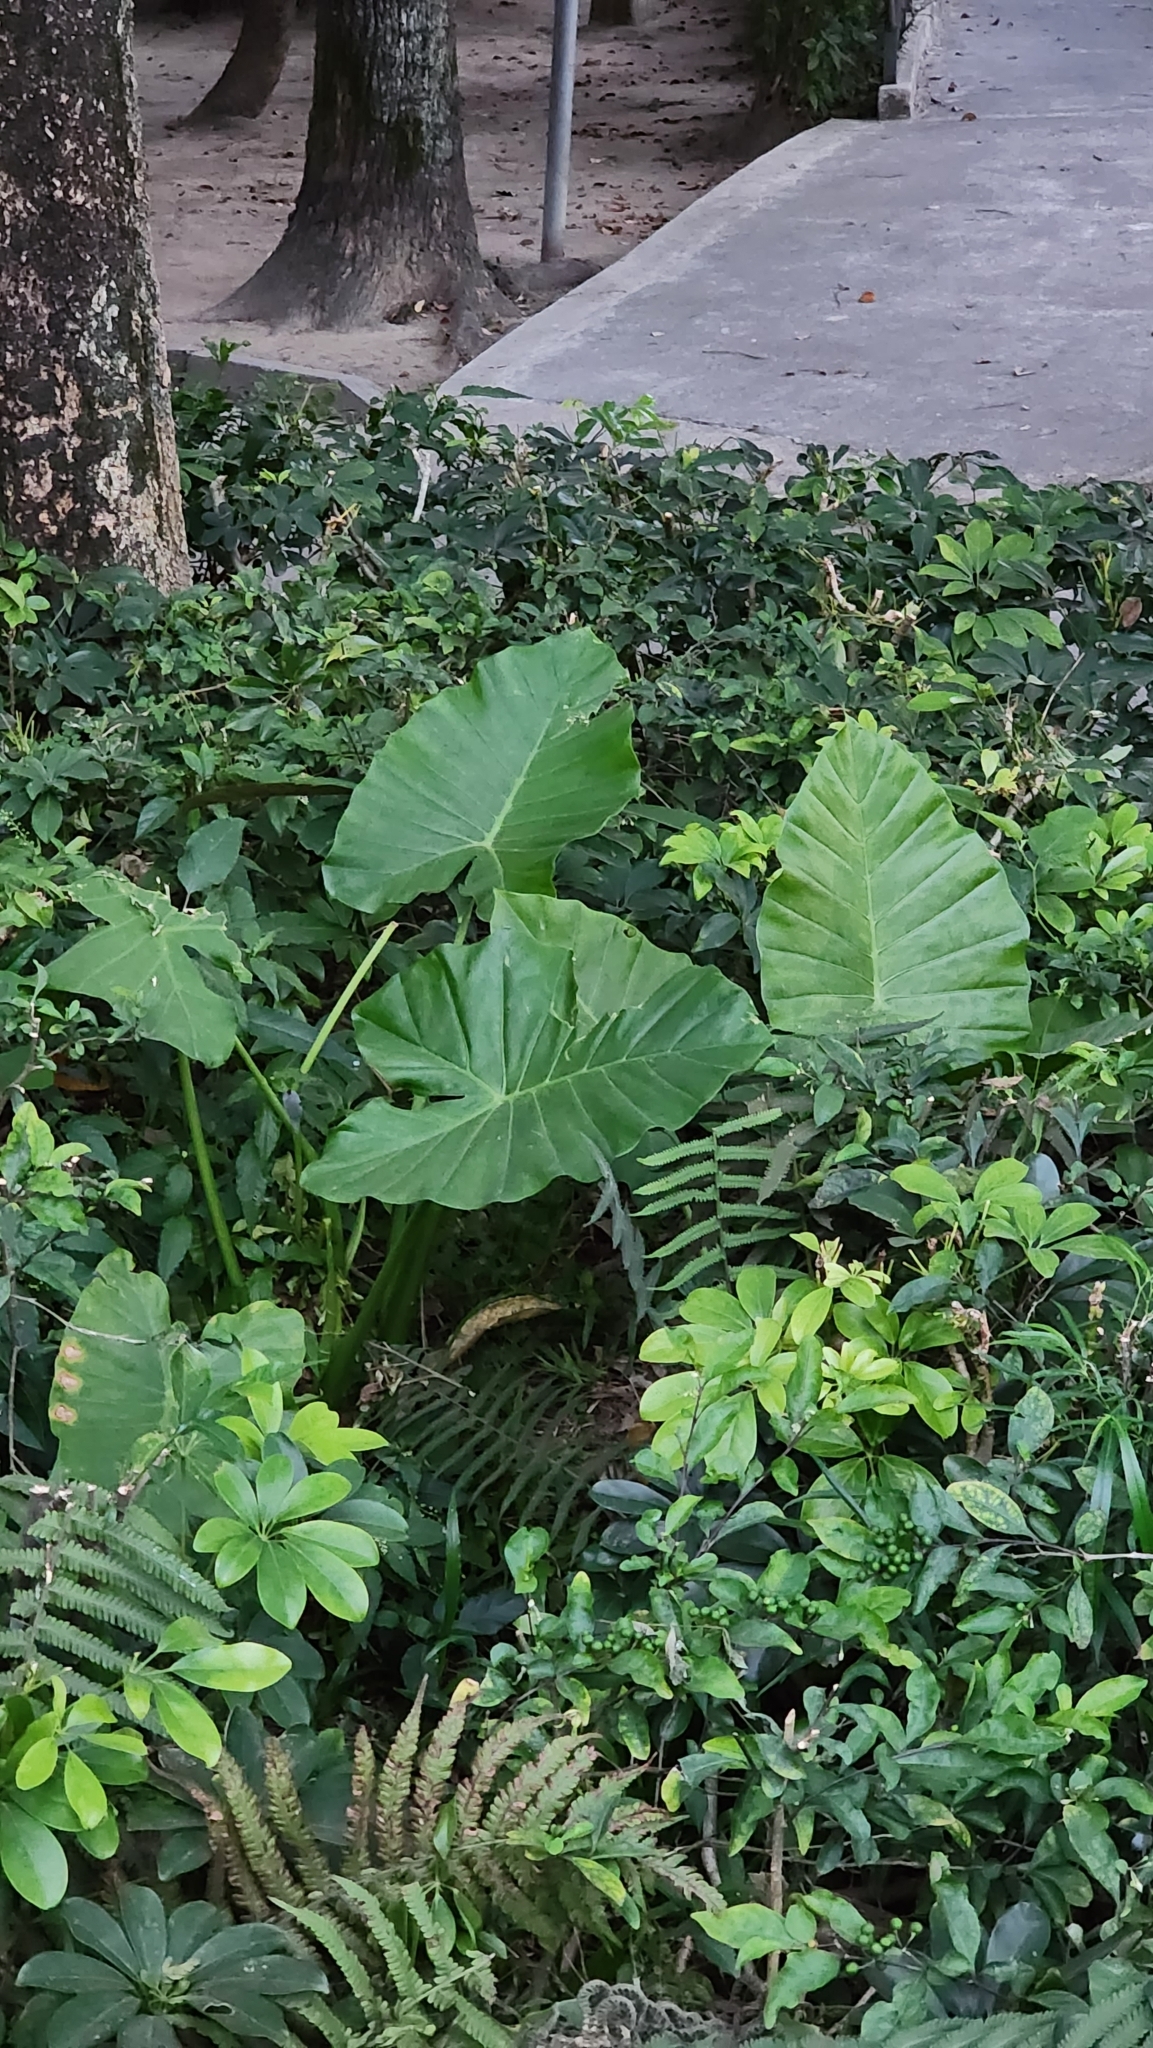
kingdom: Plantae
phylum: Tracheophyta
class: Liliopsida
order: Alismatales
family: Araceae
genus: Alocasia
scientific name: Alocasia odora
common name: Asian taro
